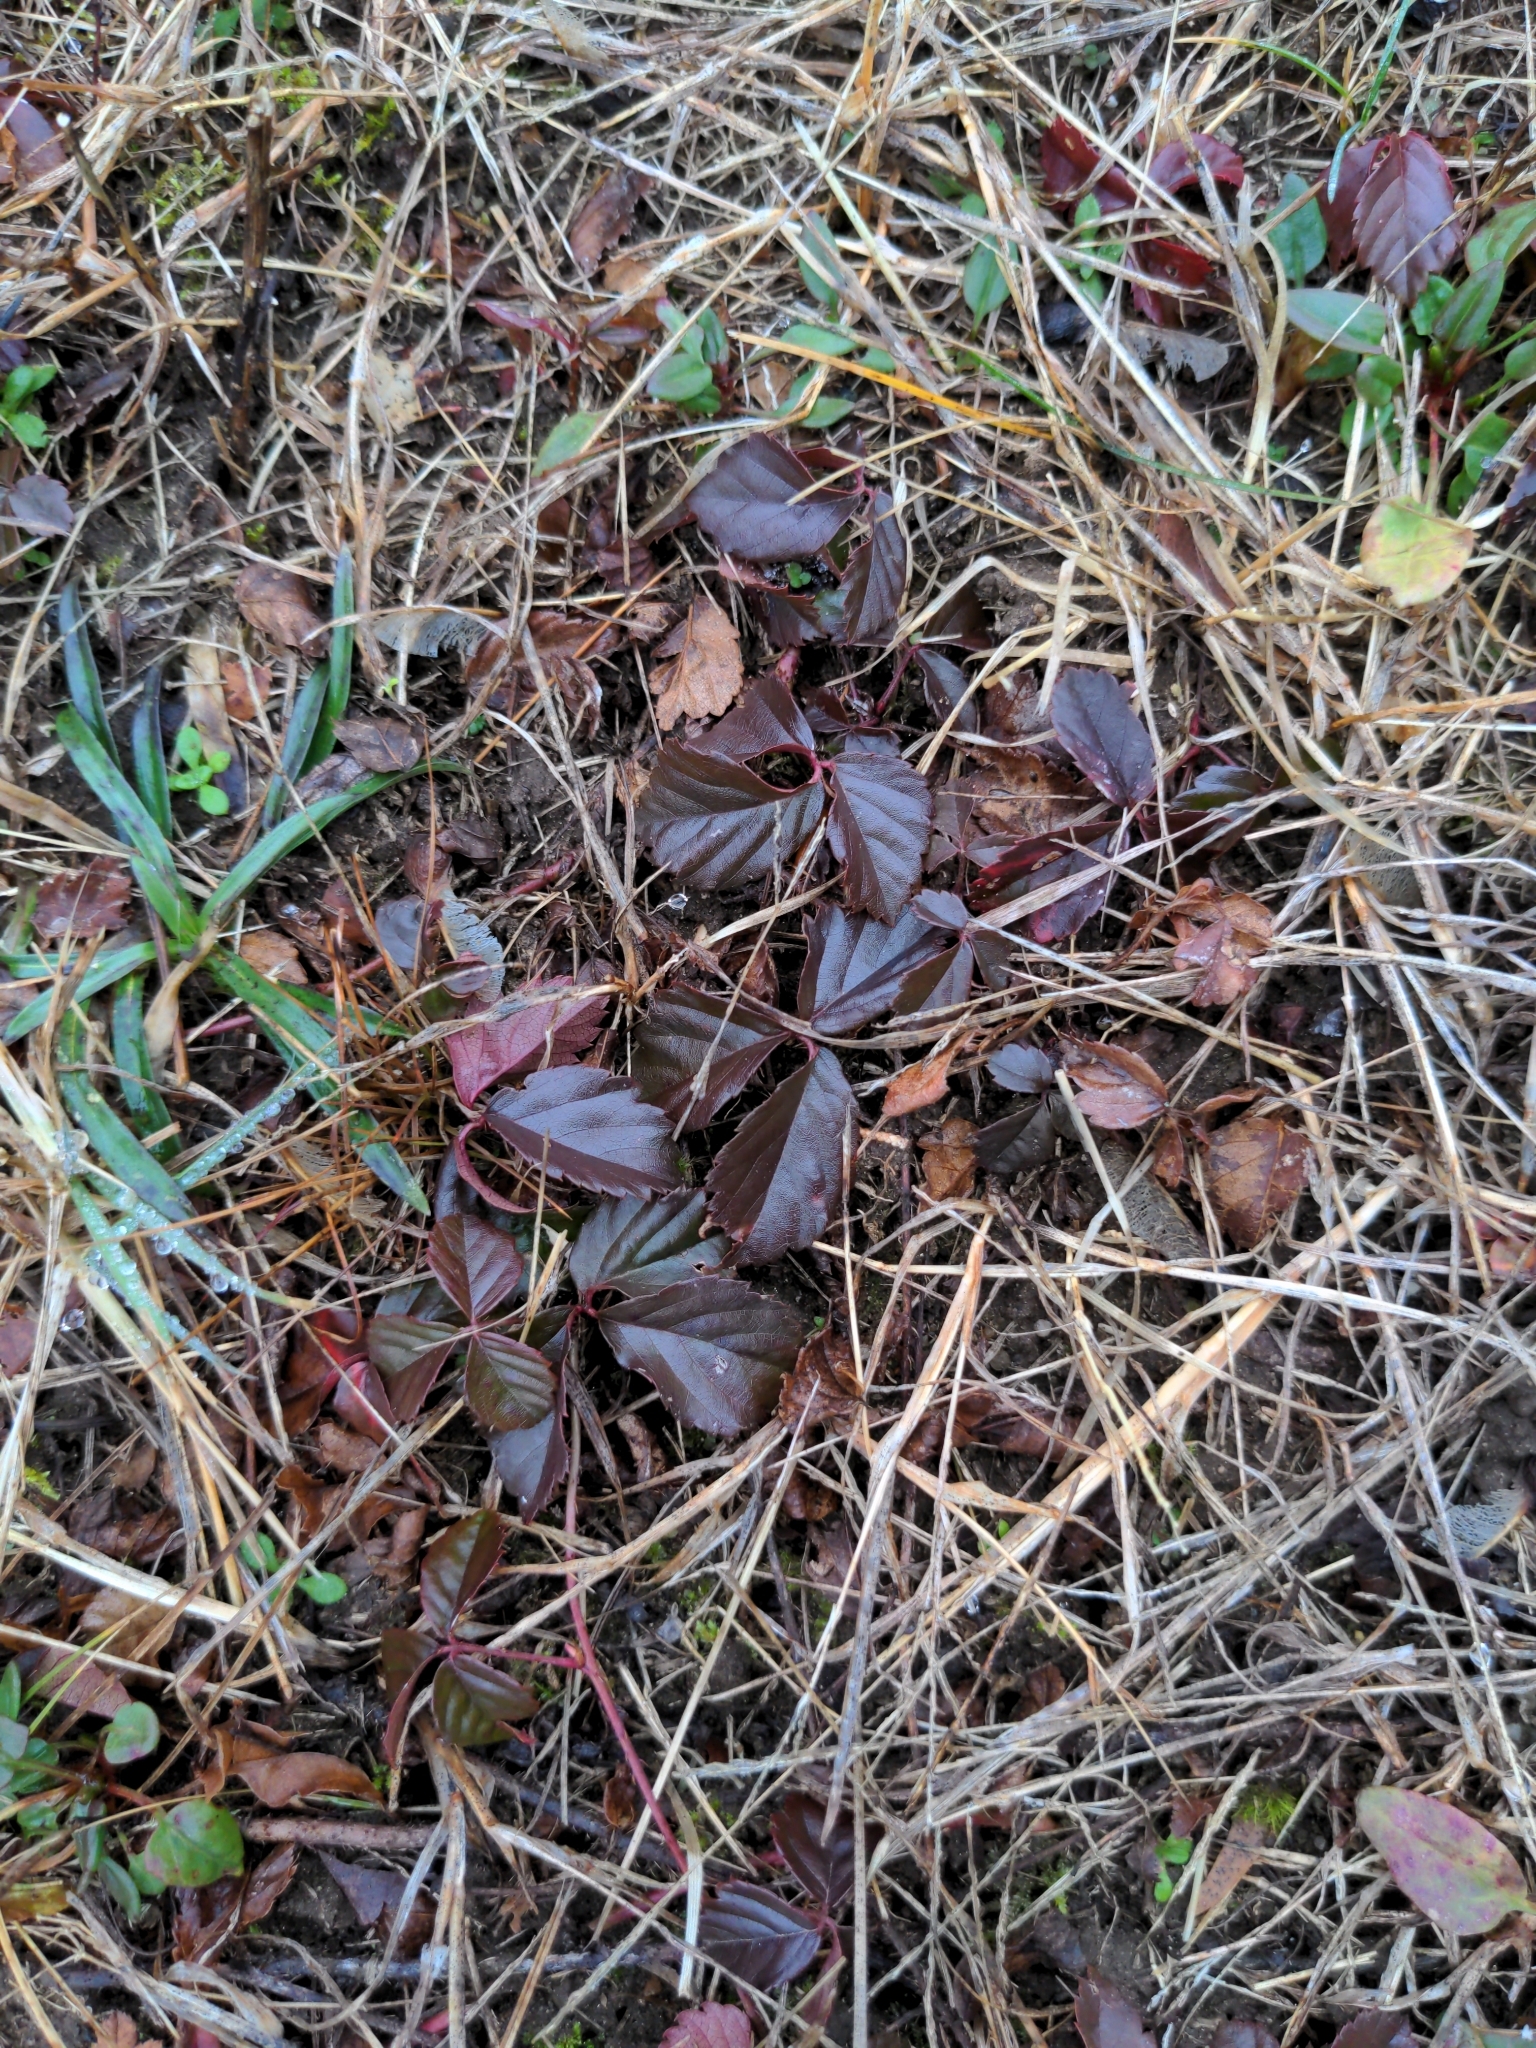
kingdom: Plantae
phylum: Tracheophyta
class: Magnoliopsida
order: Rosales
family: Rosaceae
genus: Rubus
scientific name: Rubus hispidus
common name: Running blackberry
